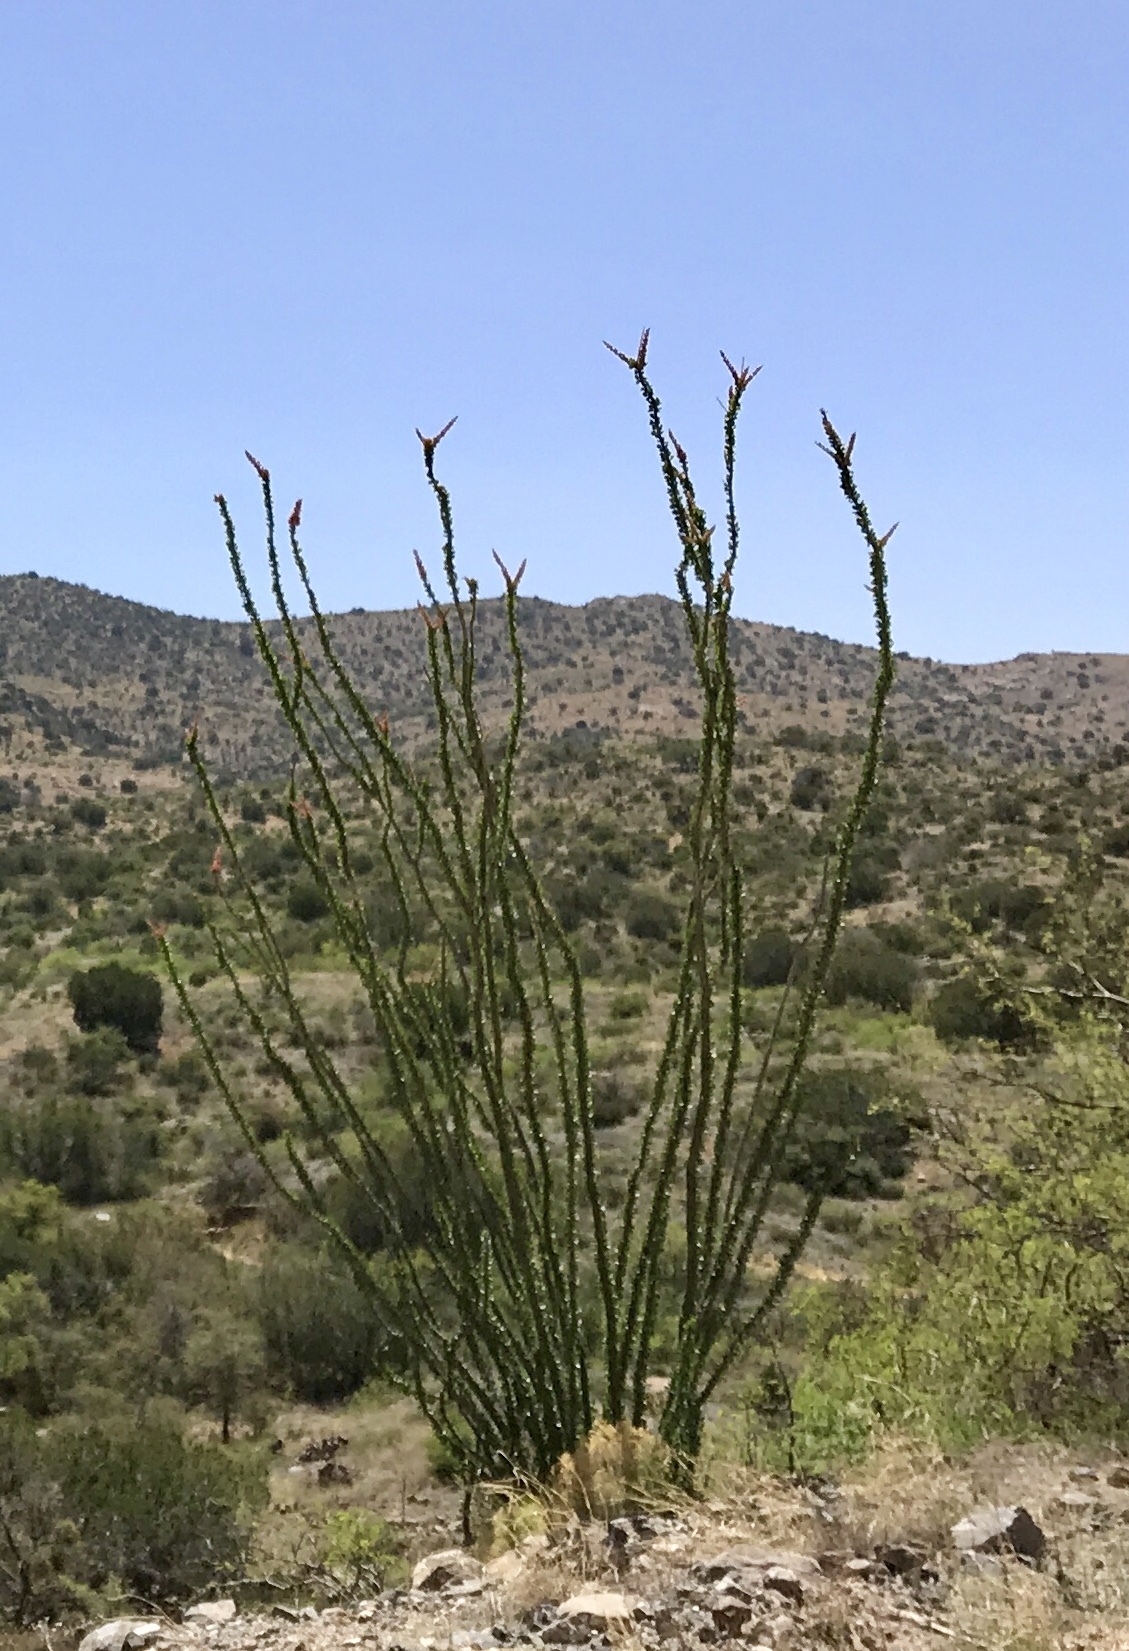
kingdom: Plantae
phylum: Tracheophyta
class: Magnoliopsida
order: Ericales
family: Fouquieriaceae
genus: Fouquieria
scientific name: Fouquieria splendens
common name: Vine-cactus
